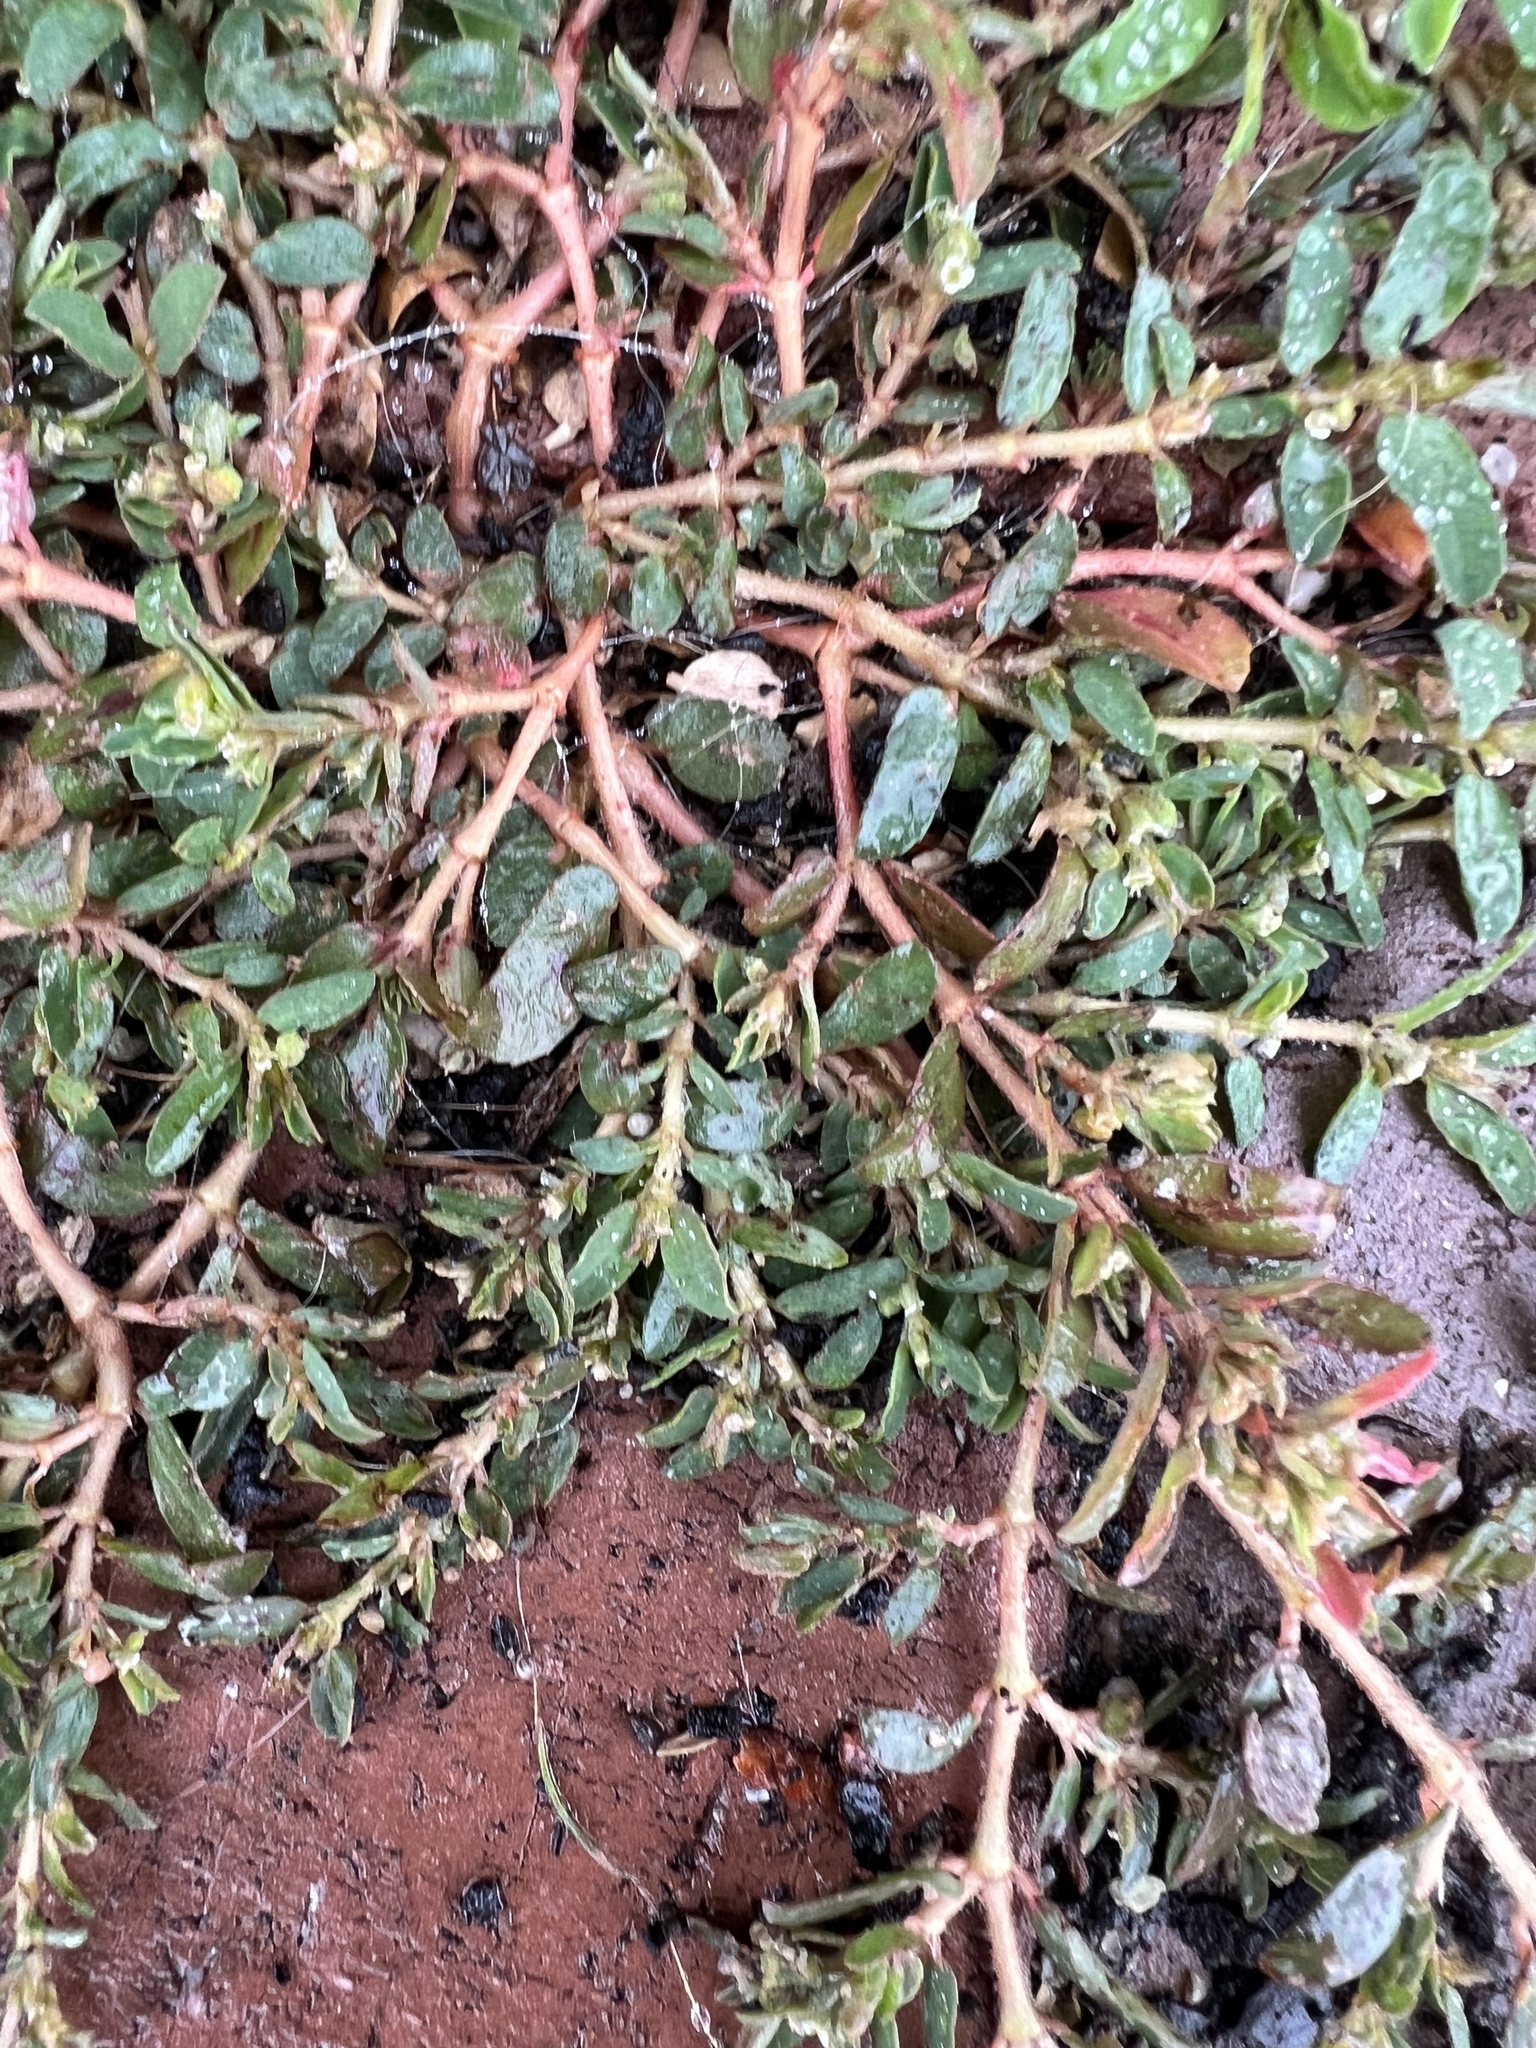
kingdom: Plantae
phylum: Tracheophyta
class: Magnoliopsida
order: Malpighiales
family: Euphorbiaceae
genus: Euphorbia
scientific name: Euphorbia maculata
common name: Spotted spurge
